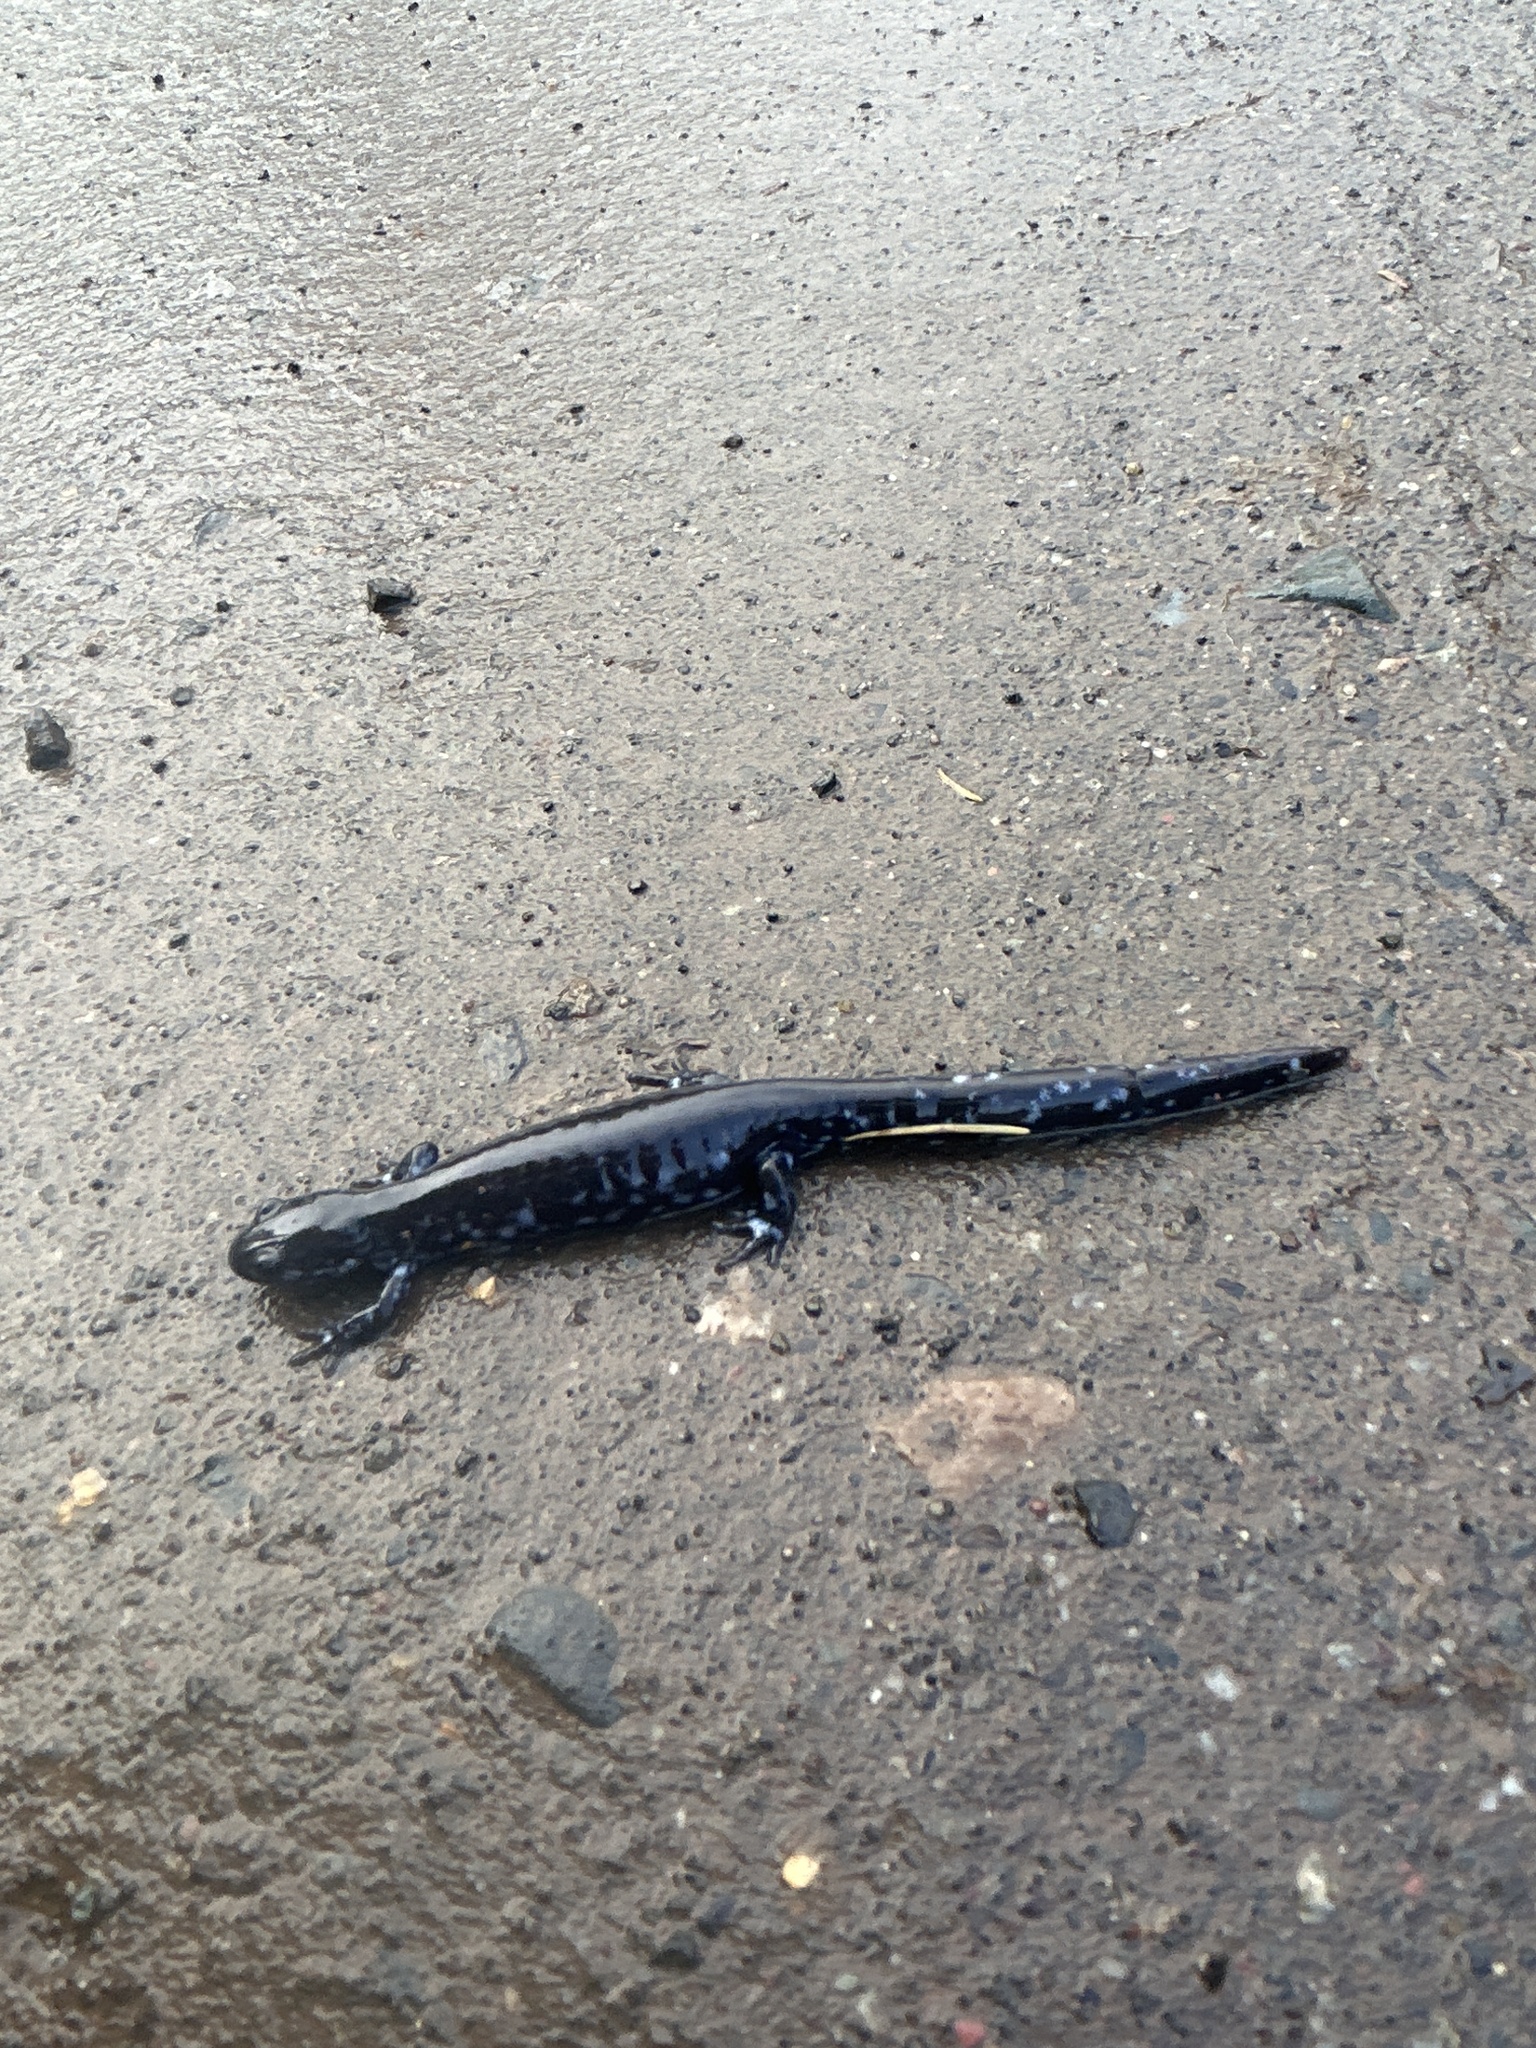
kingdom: Animalia
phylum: Chordata
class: Amphibia
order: Caudata
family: Ambystomatidae
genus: Ambystoma
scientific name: Ambystoma laterale
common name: Blue-spotted salamander
